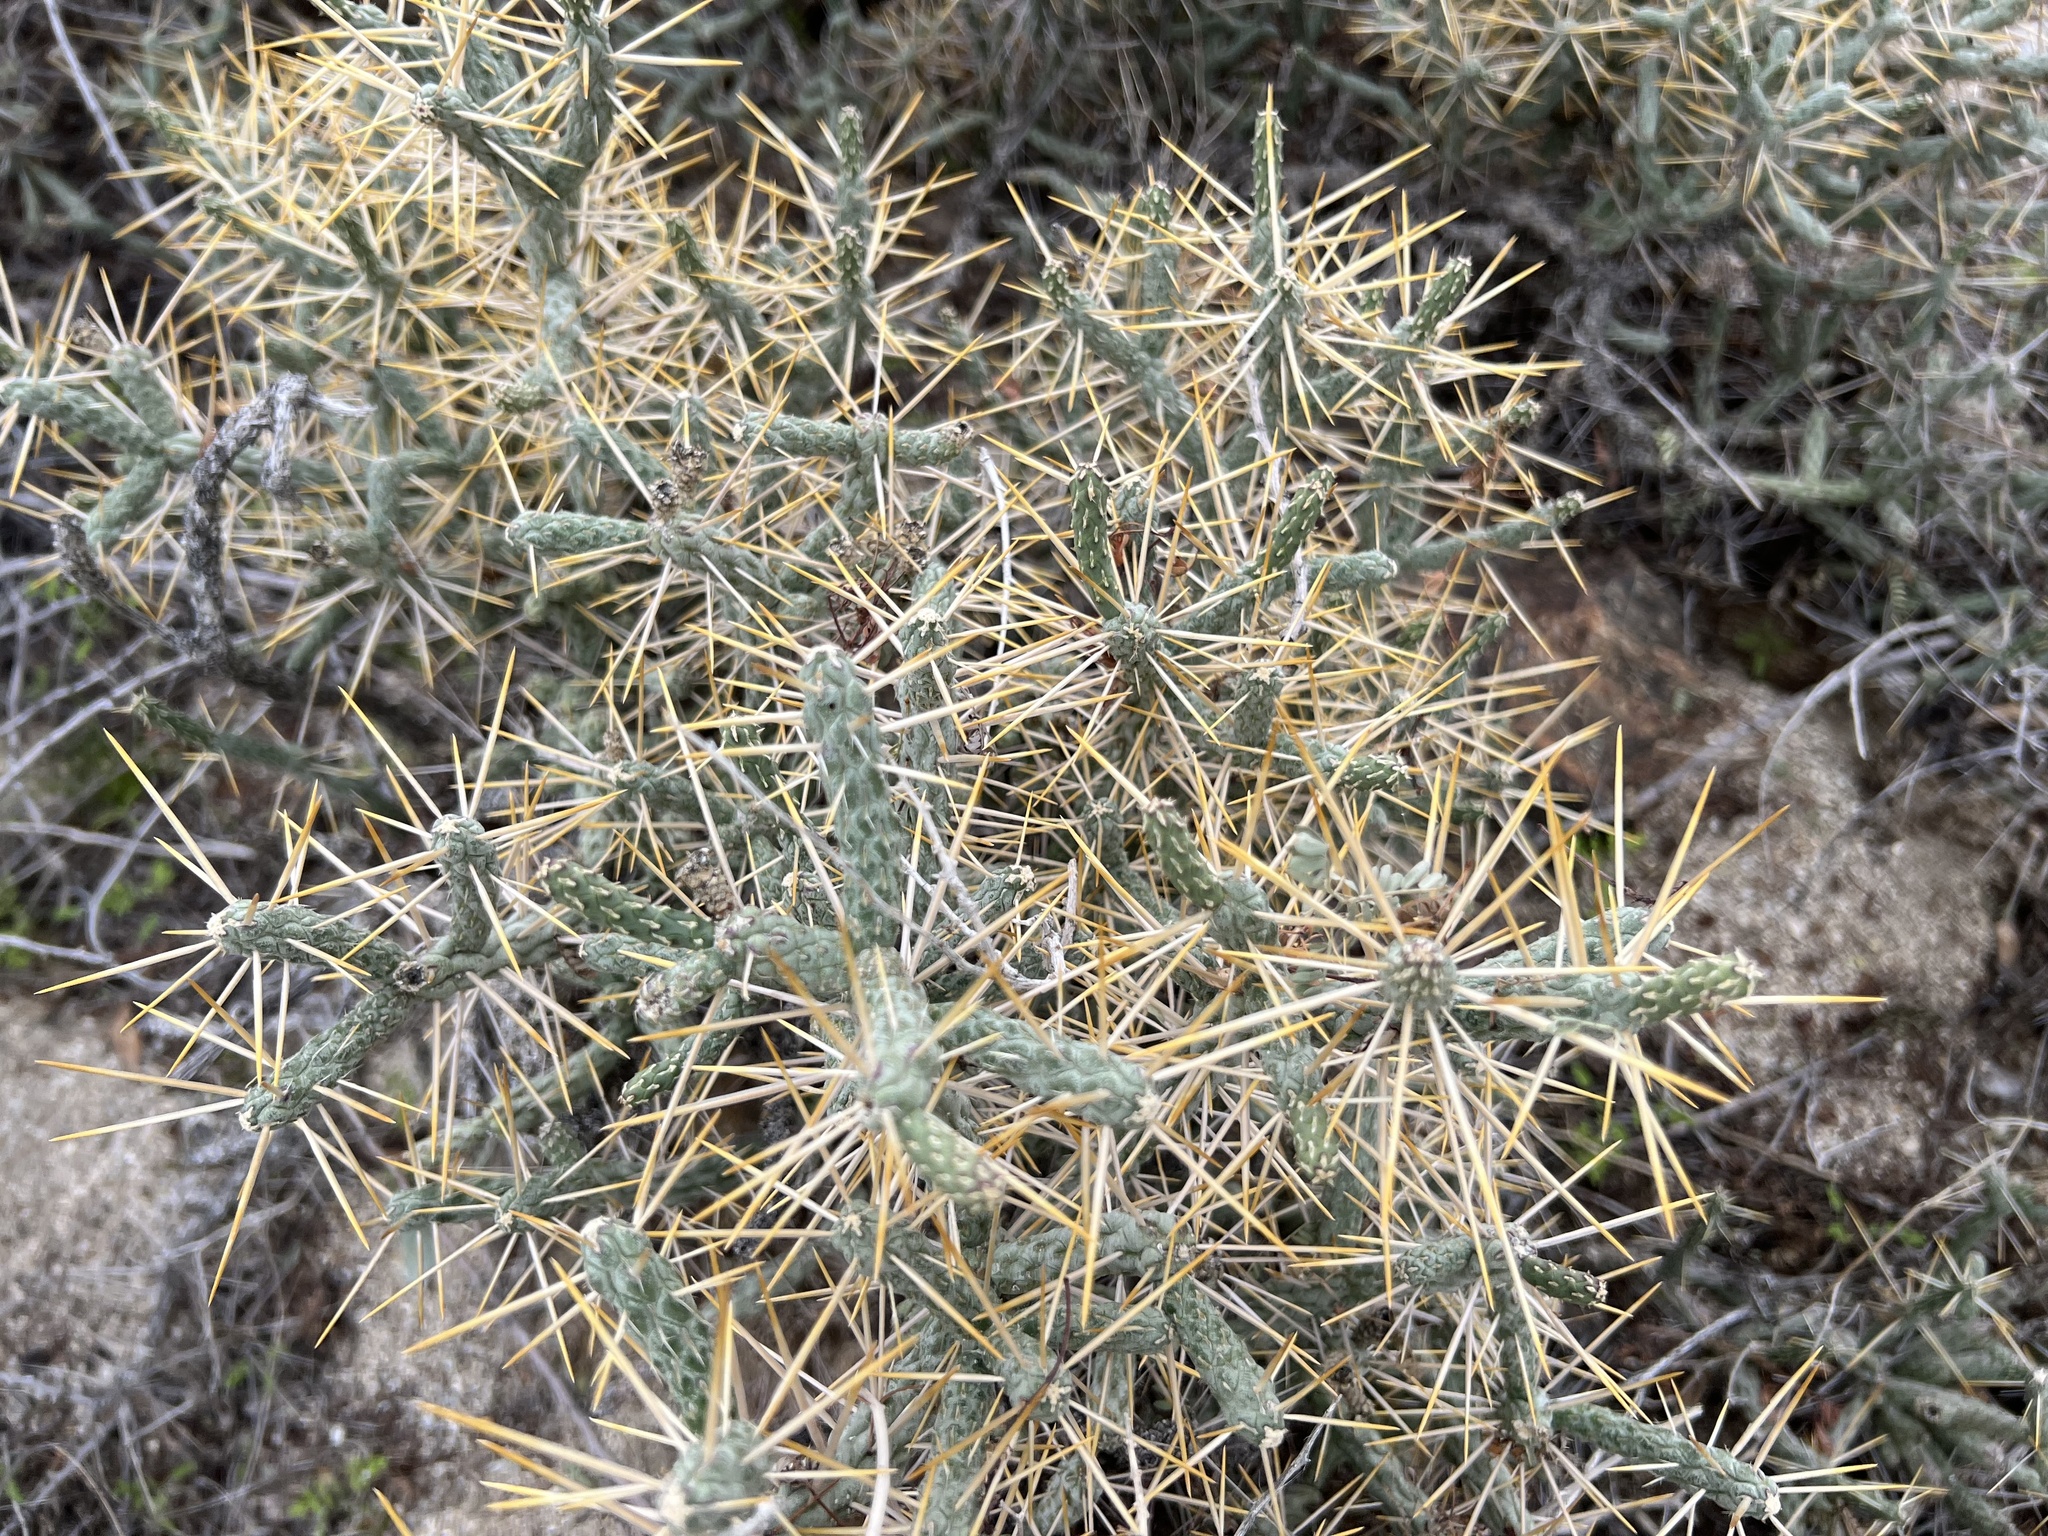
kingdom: Plantae
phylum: Tracheophyta
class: Magnoliopsida
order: Caryophyllales
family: Cactaceae
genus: Cylindropuntia
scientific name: Cylindropuntia ramosissima
